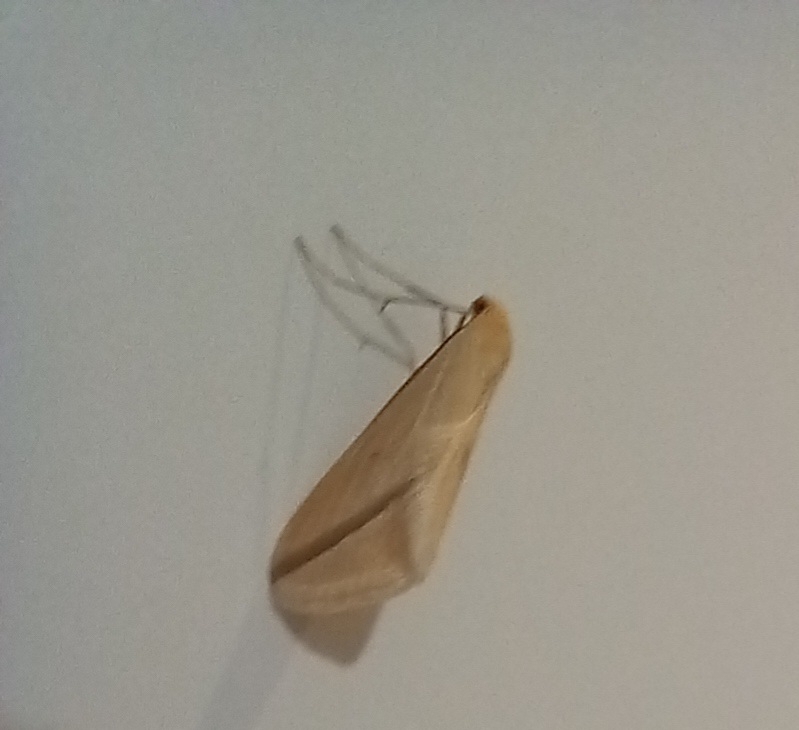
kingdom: Animalia
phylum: Arthropoda
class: Insecta
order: Lepidoptera
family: Geometridae
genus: Rhodometra
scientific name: Rhodometra sacraria
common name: Vestal
